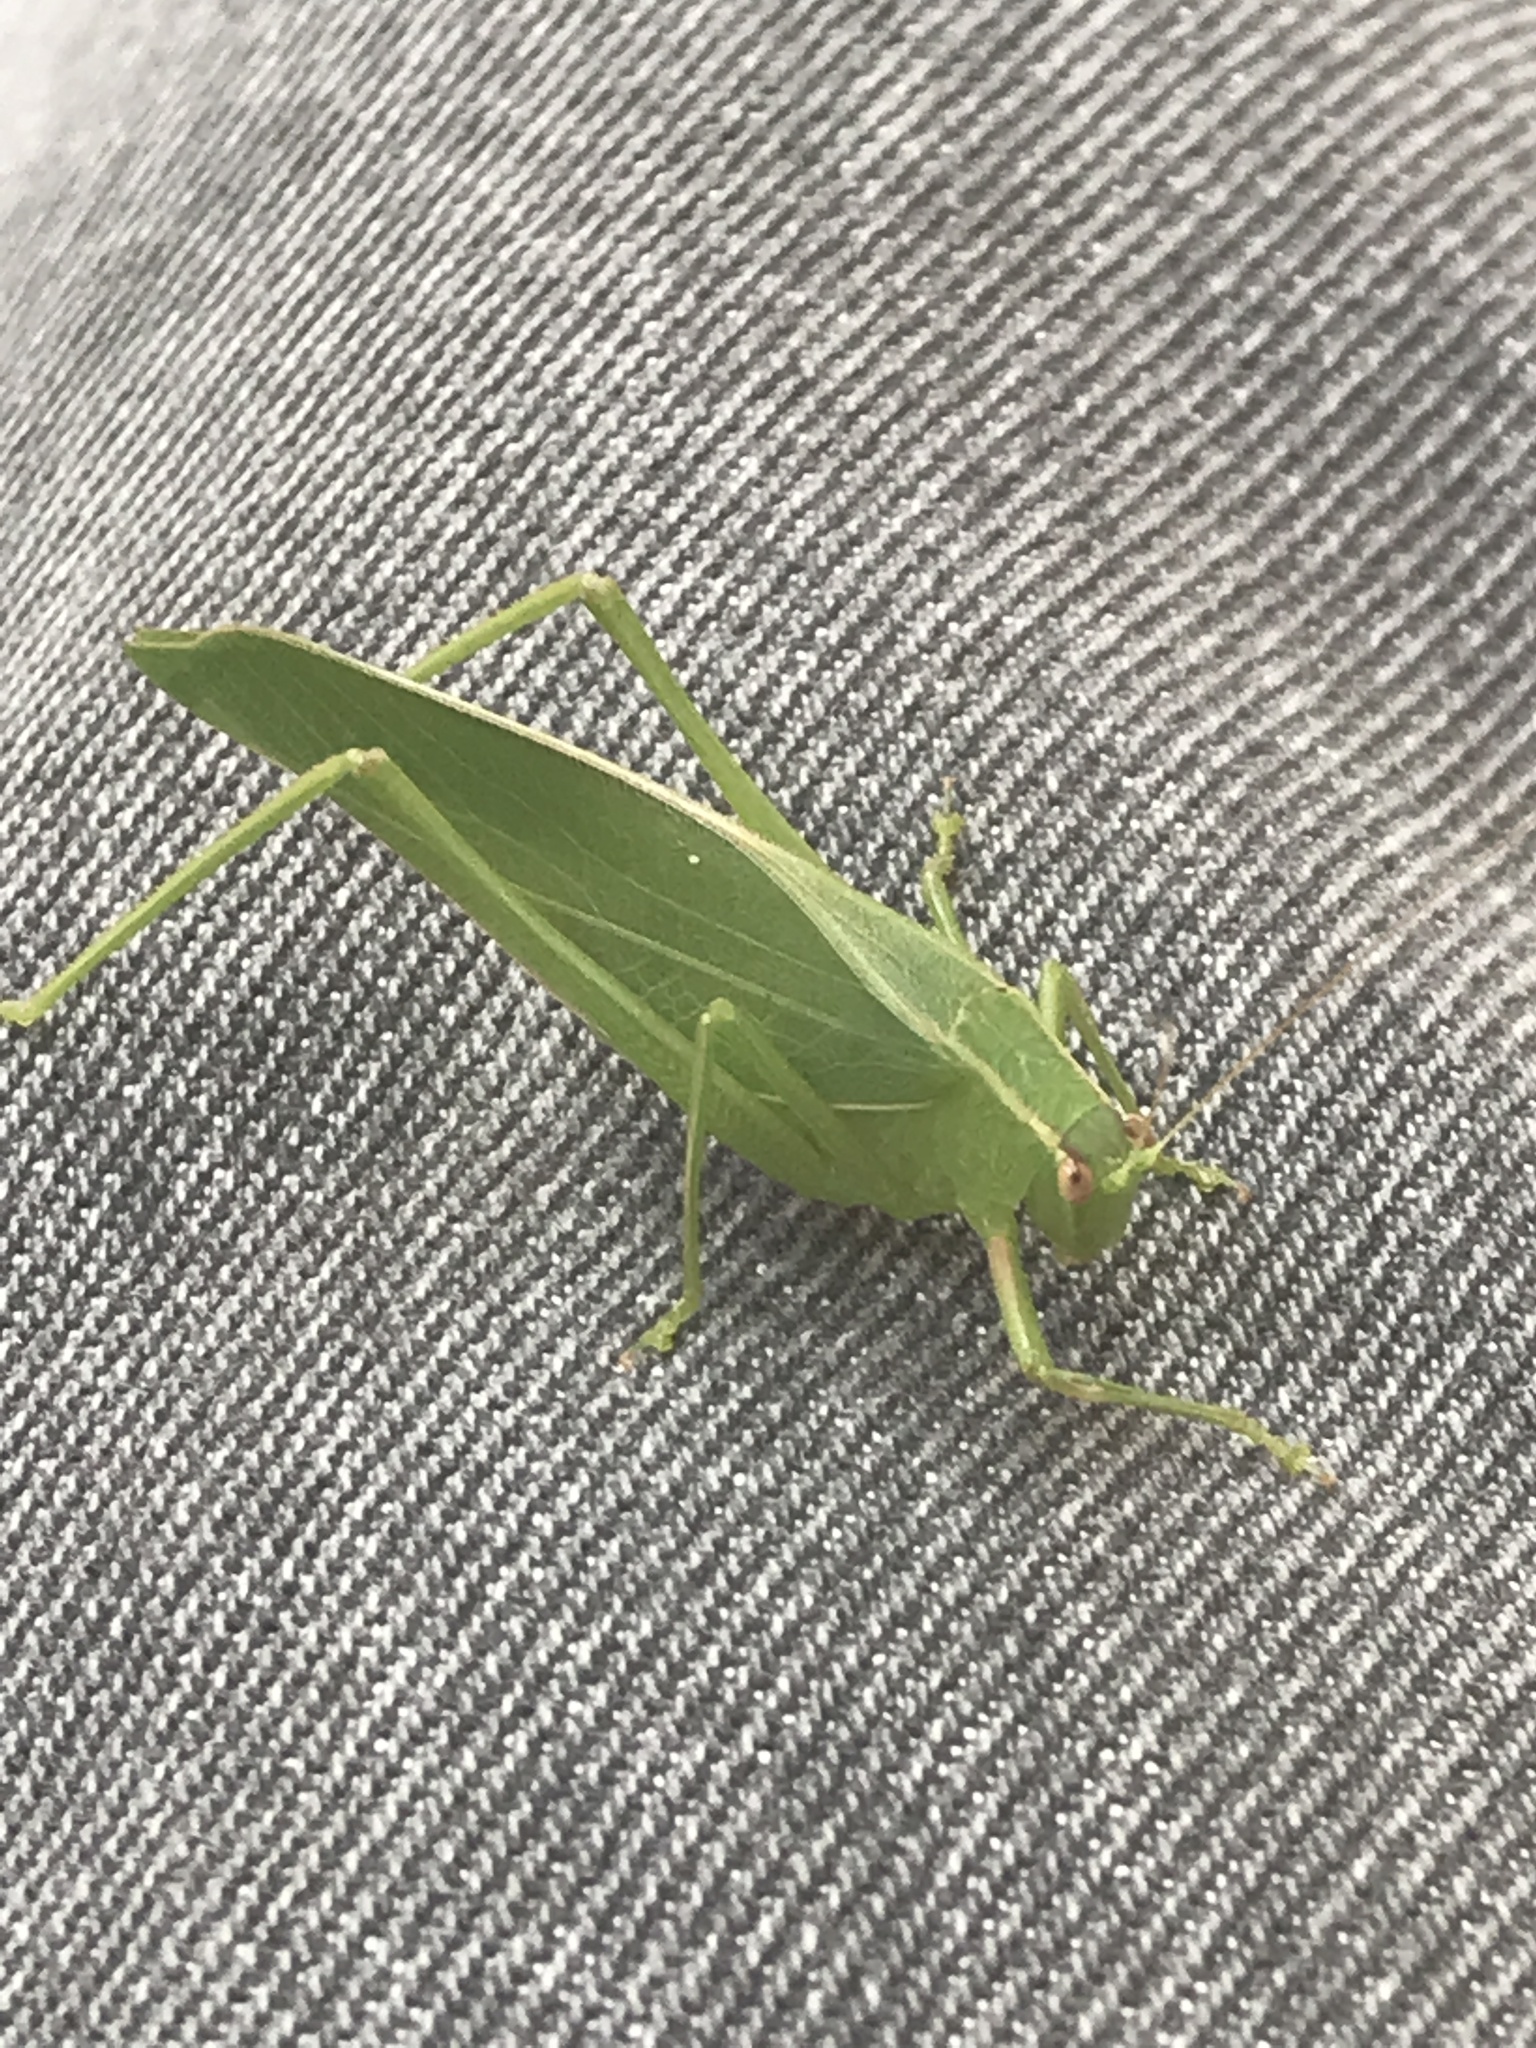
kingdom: Animalia
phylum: Arthropoda
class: Insecta
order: Orthoptera
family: Tettigoniidae
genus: Caedicia
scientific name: Caedicia simplex
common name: Common garden katydid
